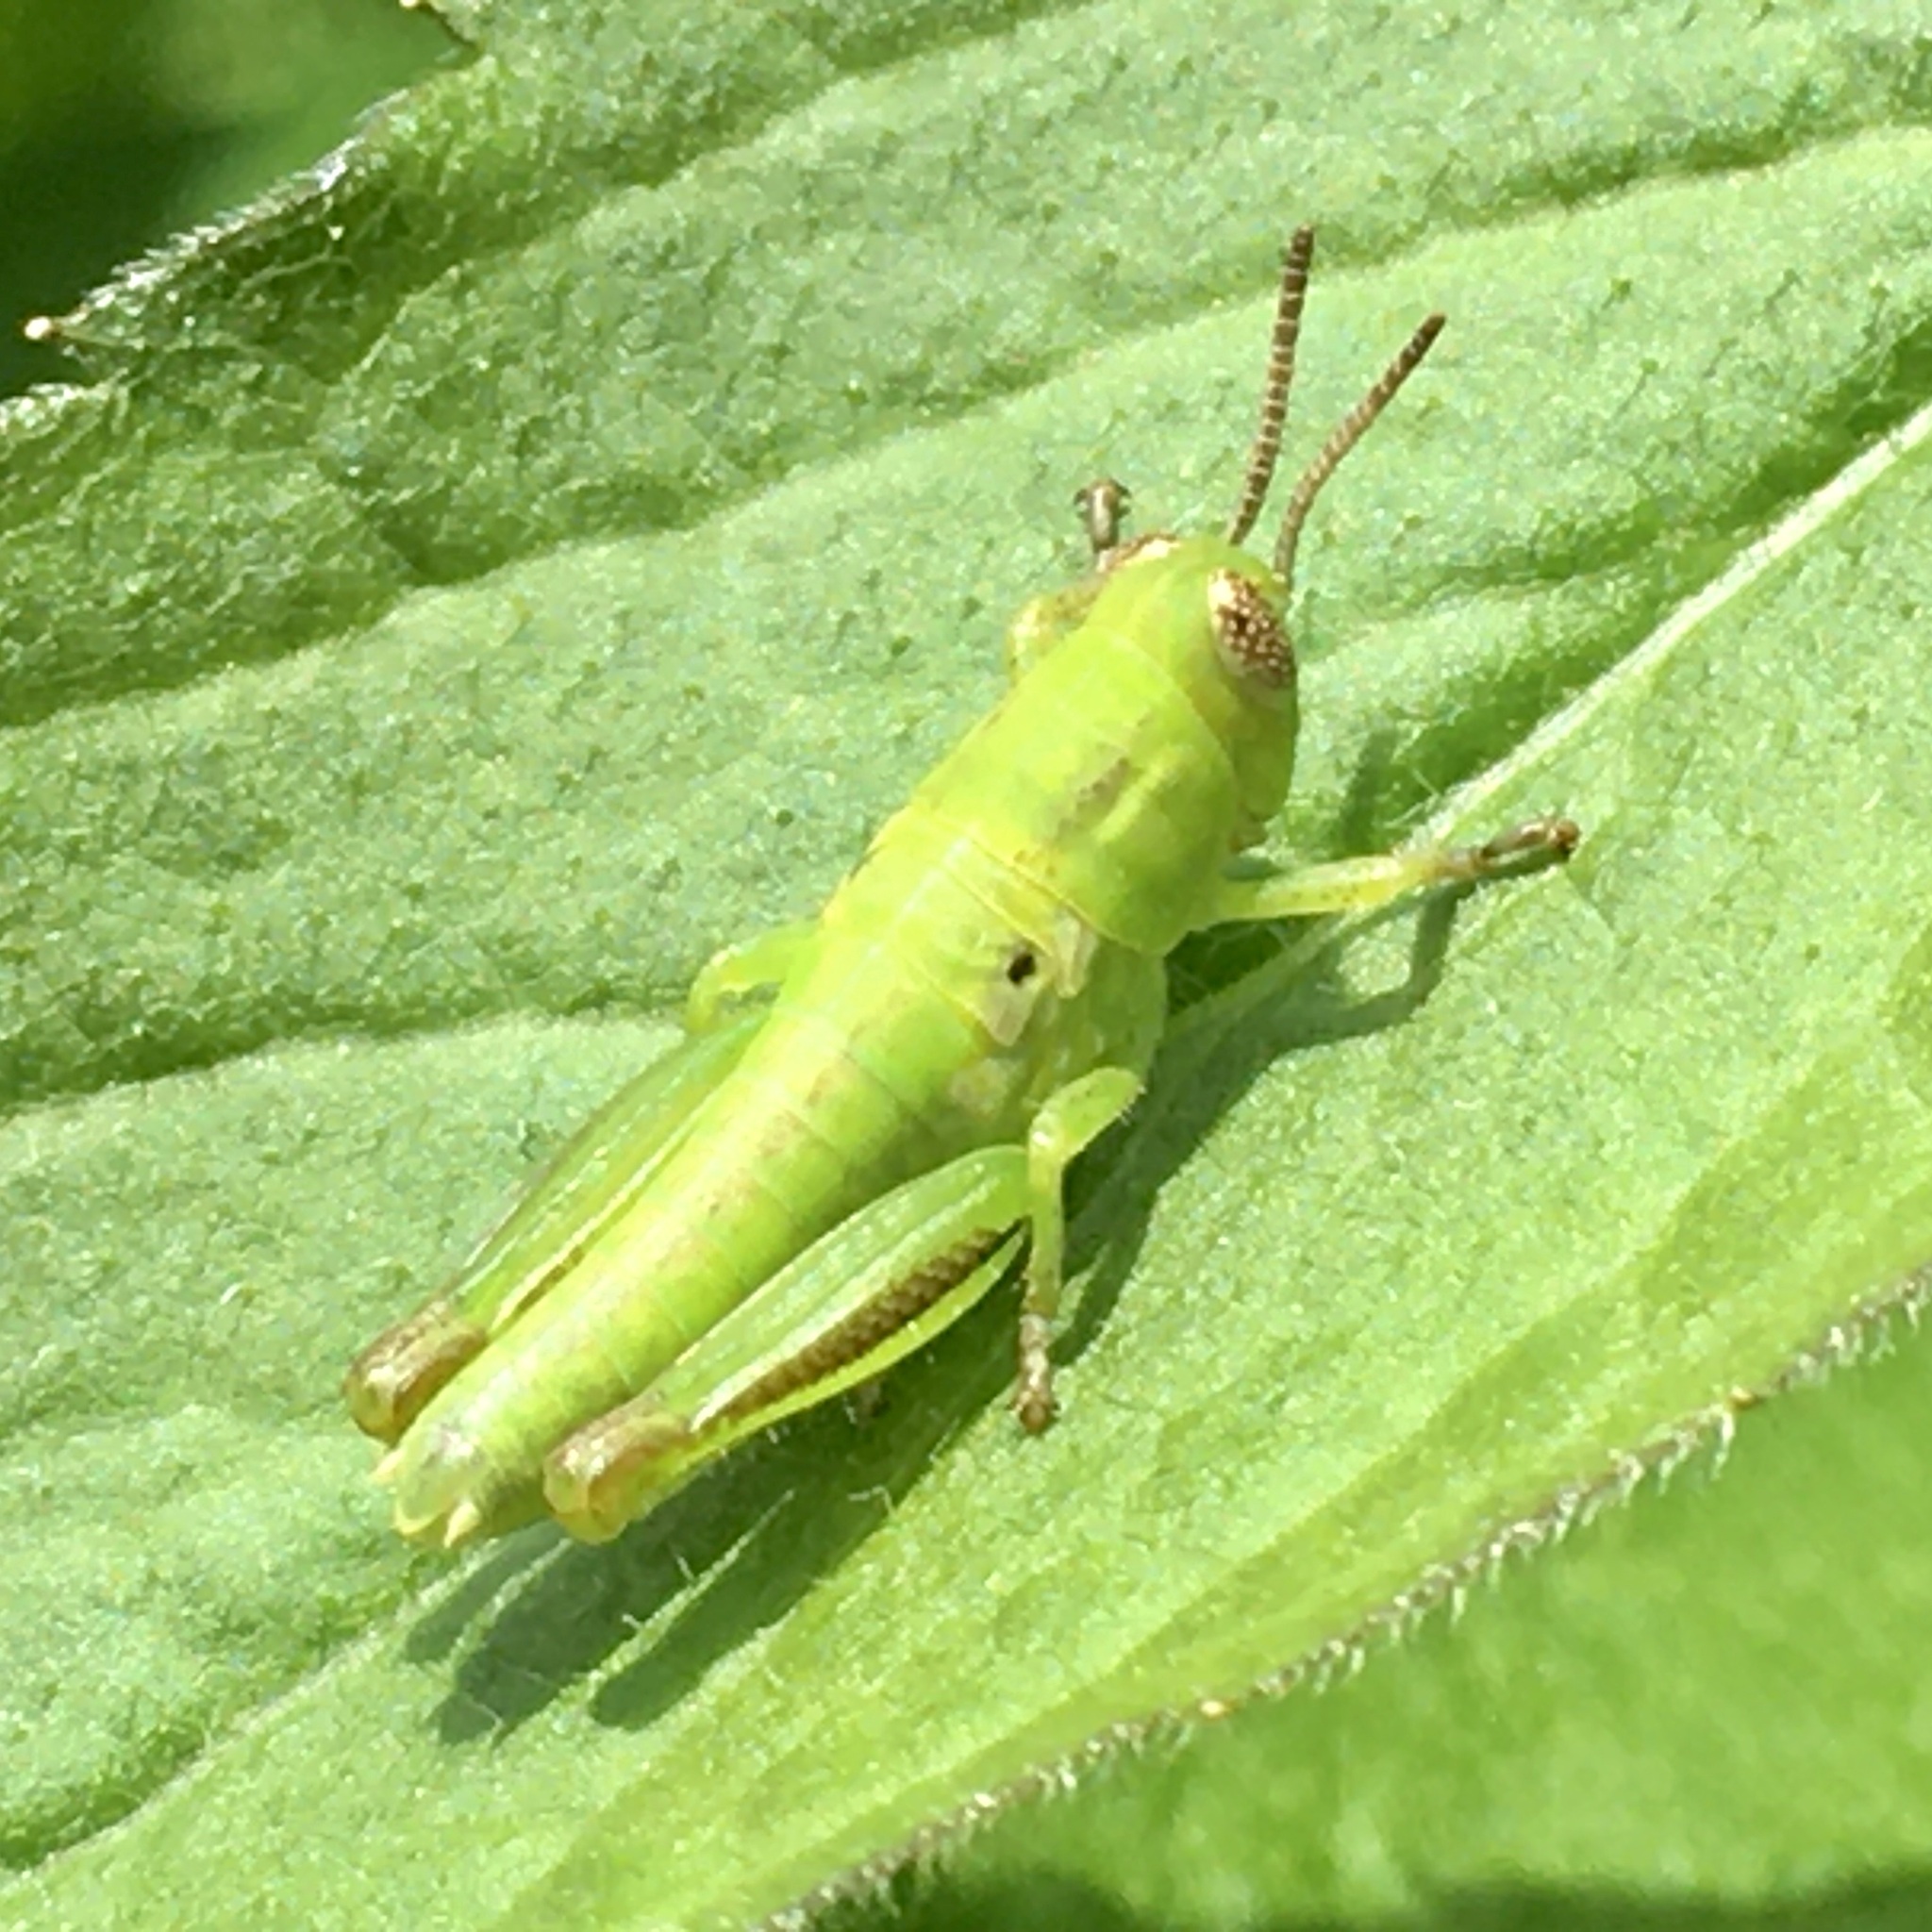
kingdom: Animalia
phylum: Arthropoda
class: Insecta
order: Orthoptera
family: Acrididae
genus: Melanoplus
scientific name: Melanoplus bivittatus
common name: Two-striped grasshopper
